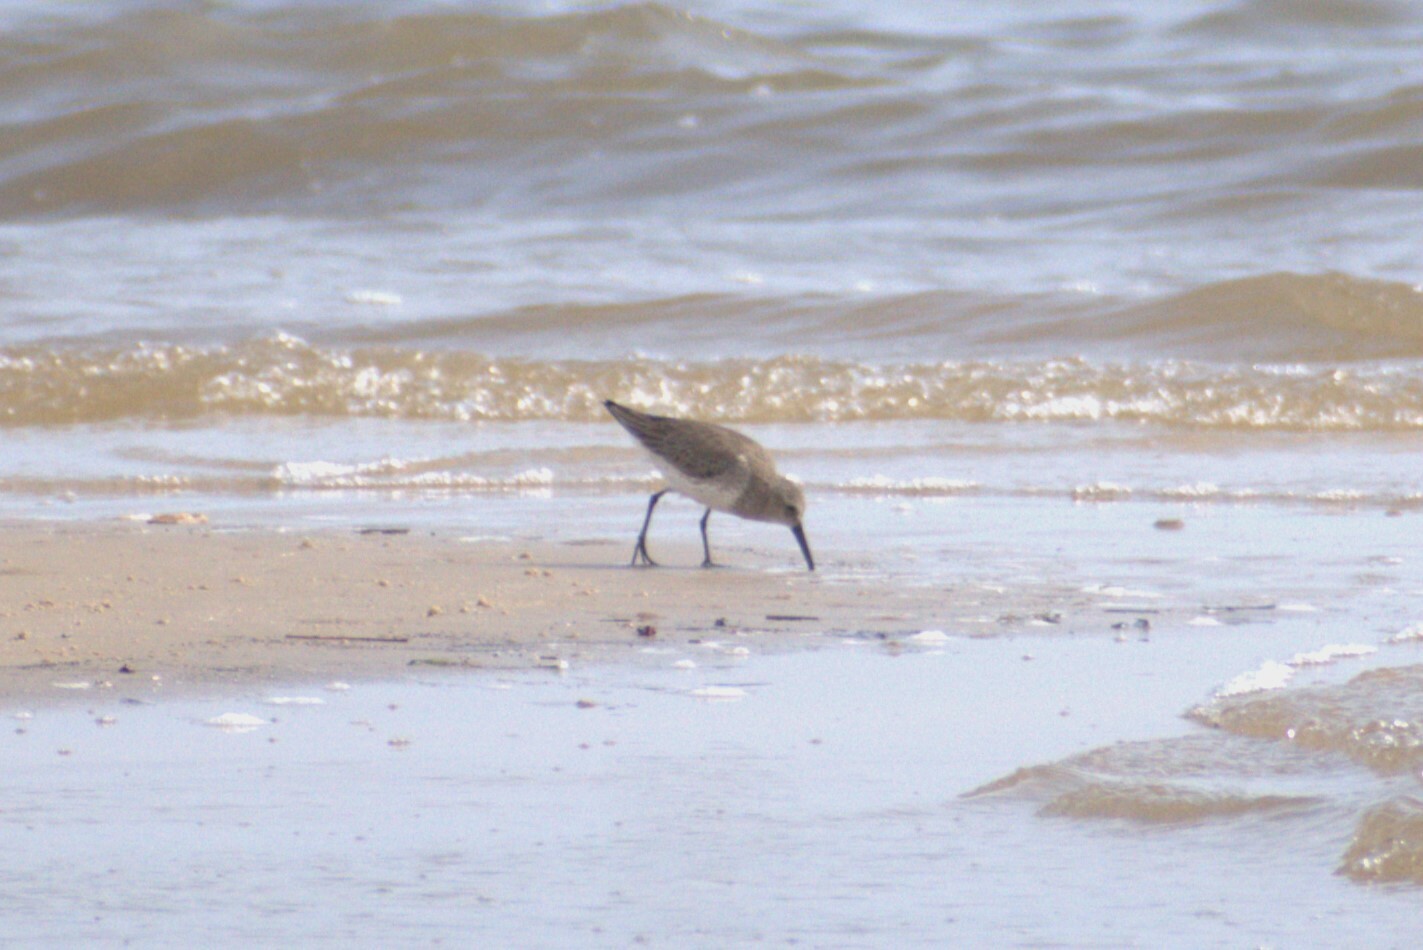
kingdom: Animalia
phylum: Chordata
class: Aves
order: Charadriiformes
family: Scolopacidae
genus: Calidris
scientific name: Calidris alpina
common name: Dunlin
